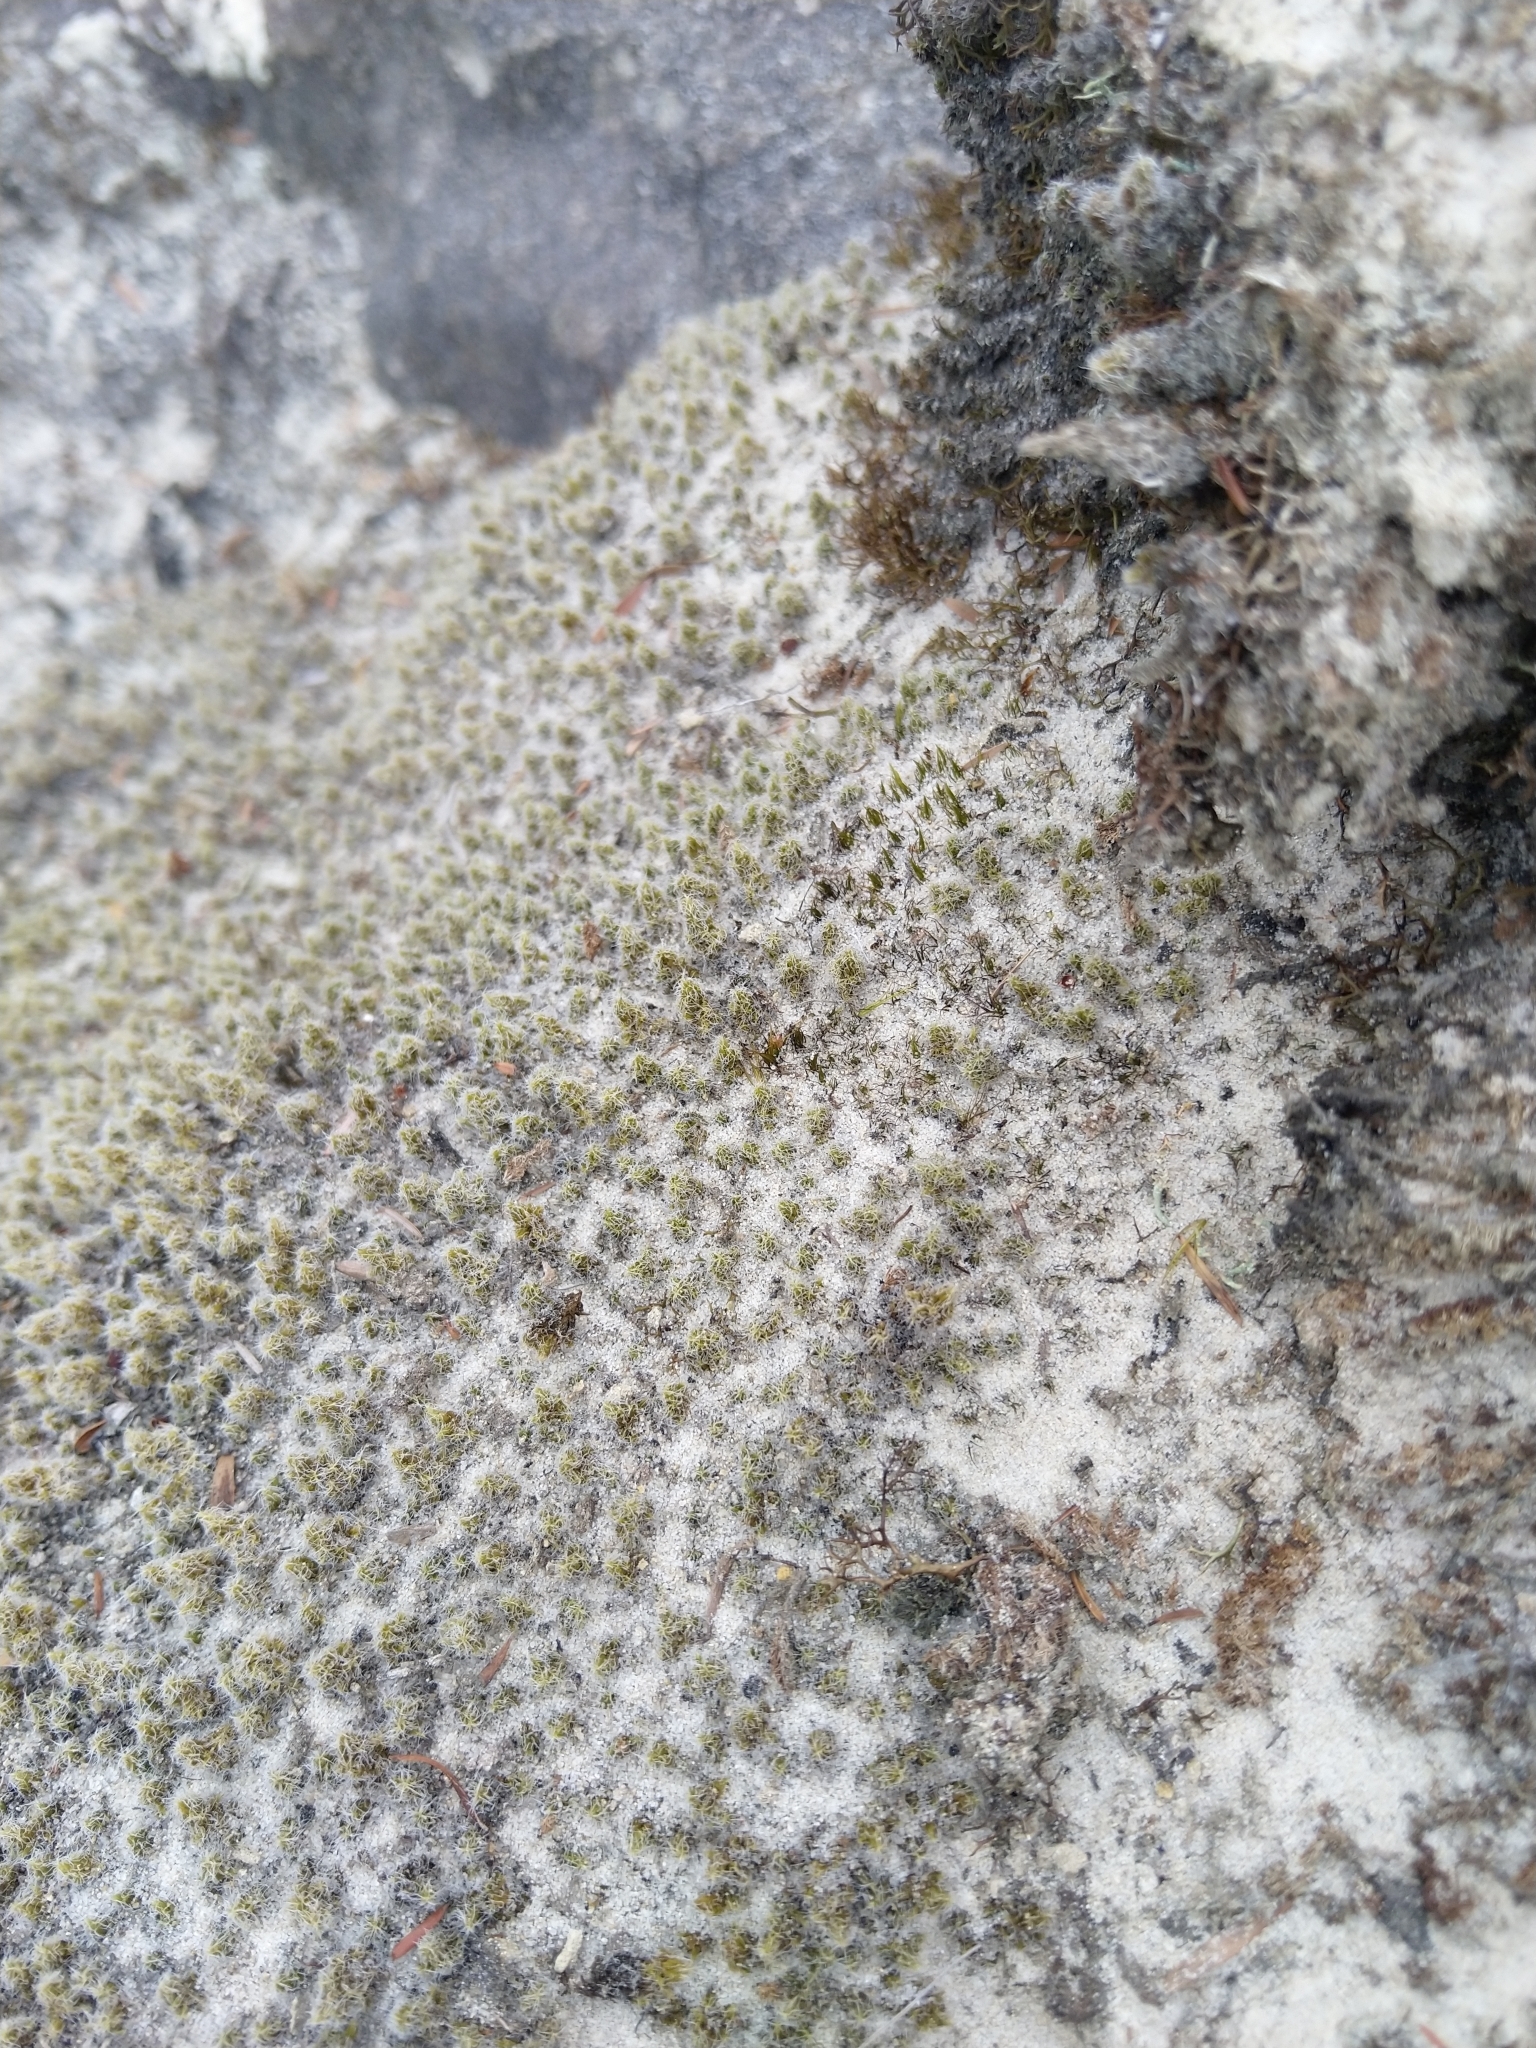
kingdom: Plantae
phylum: Bryophyta
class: Bryopsida
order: Grimmiales
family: Grimmiaceae
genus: Racomitrium
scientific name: Racomitrium lanuginosum
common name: Hoary rock moss
